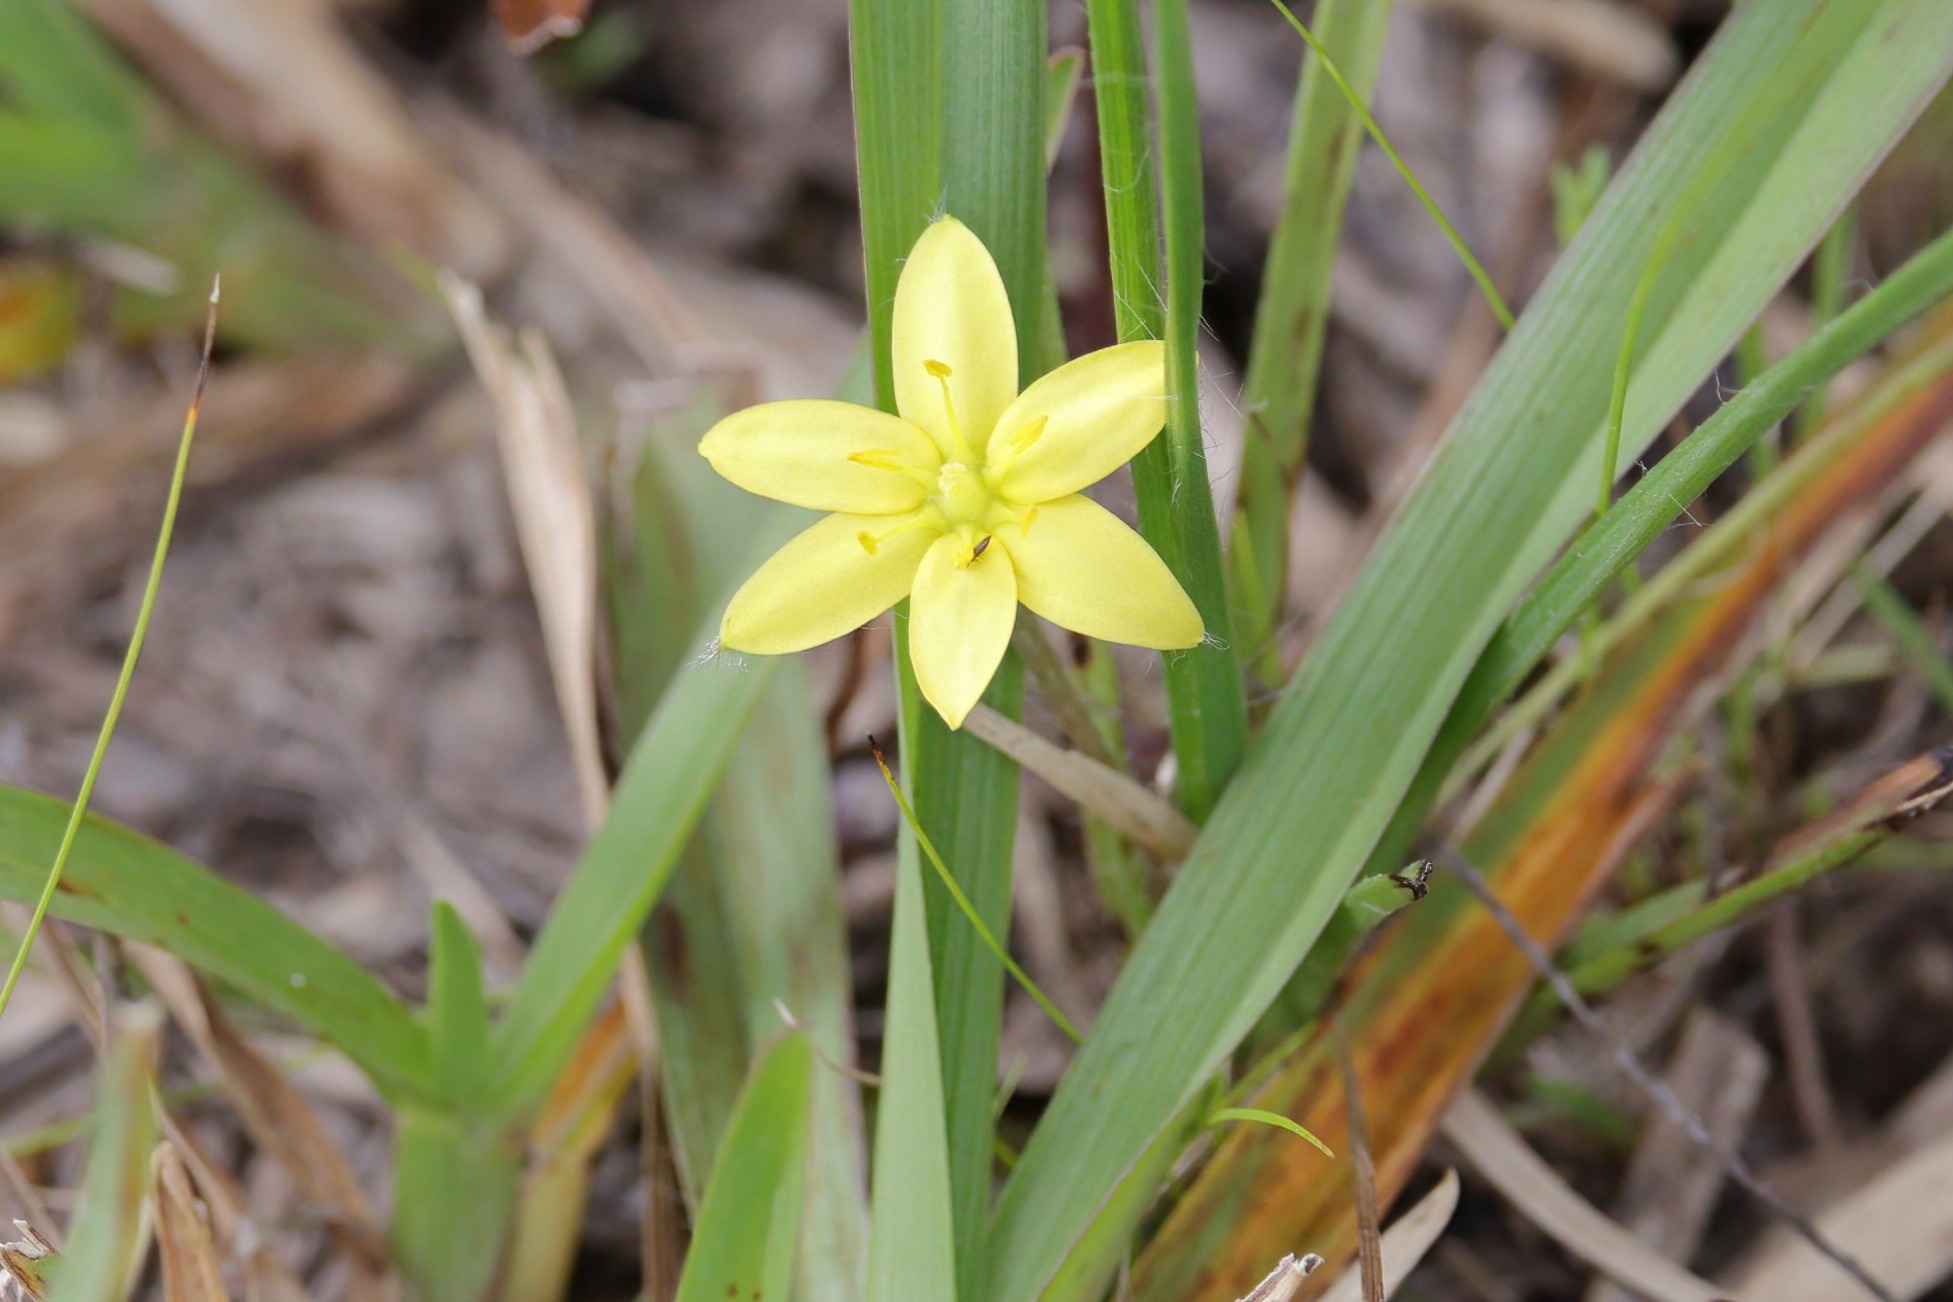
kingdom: Plantae
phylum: Tracheophyta
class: Liliopsida
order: Asparagales
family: Hypoxidaceae
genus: Hypoxis
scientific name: Hypoxis hirsuta
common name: Common goldstar
